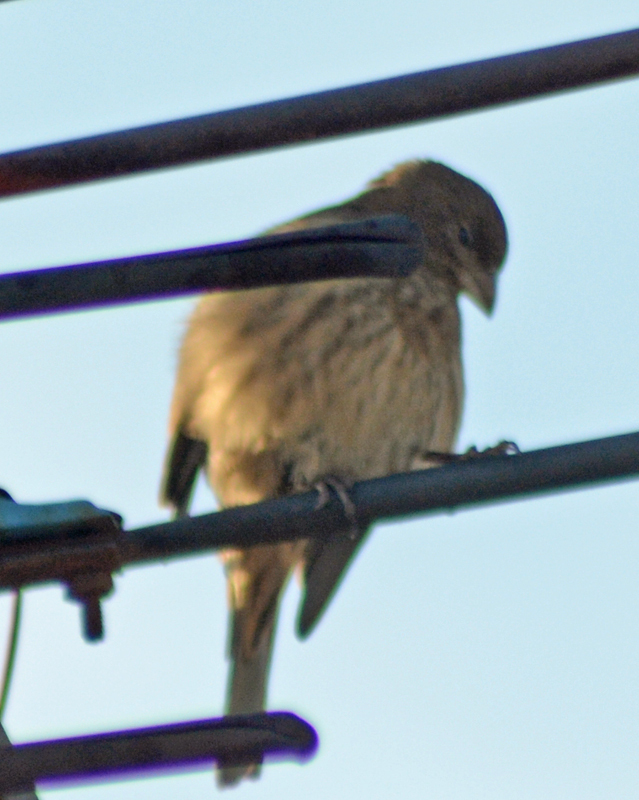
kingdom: Animalia
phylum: Chordata
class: Aves
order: Passeriformes
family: Fringillidae
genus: Haemorhous
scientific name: Haemorhous mexicanus
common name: House finch
